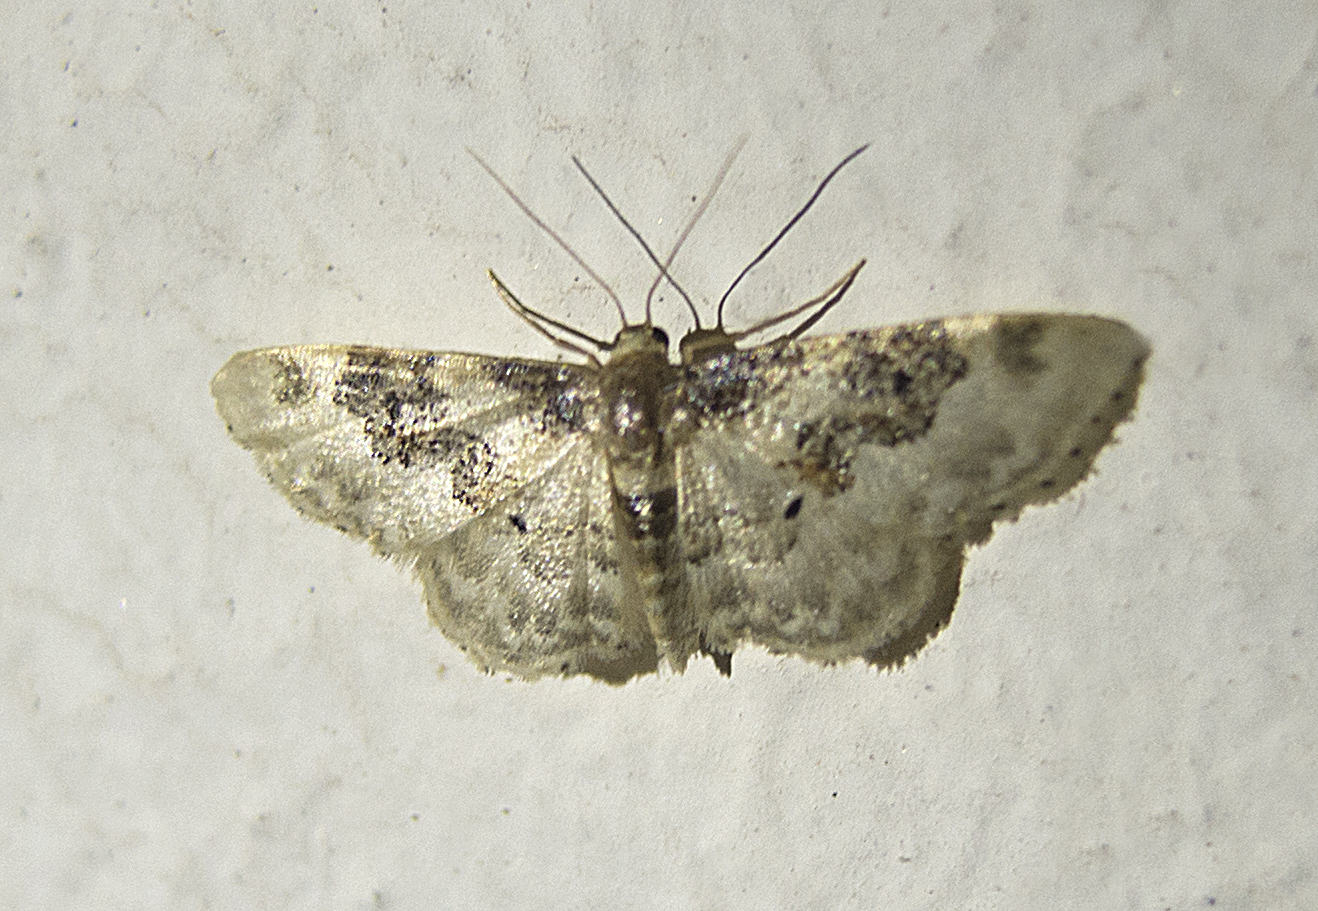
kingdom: Animalia
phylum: Arthropoda
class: Insecta
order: Lepidoptera
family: Geometridae
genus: Idaea
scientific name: Idaea rusticata
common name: Least carpet
